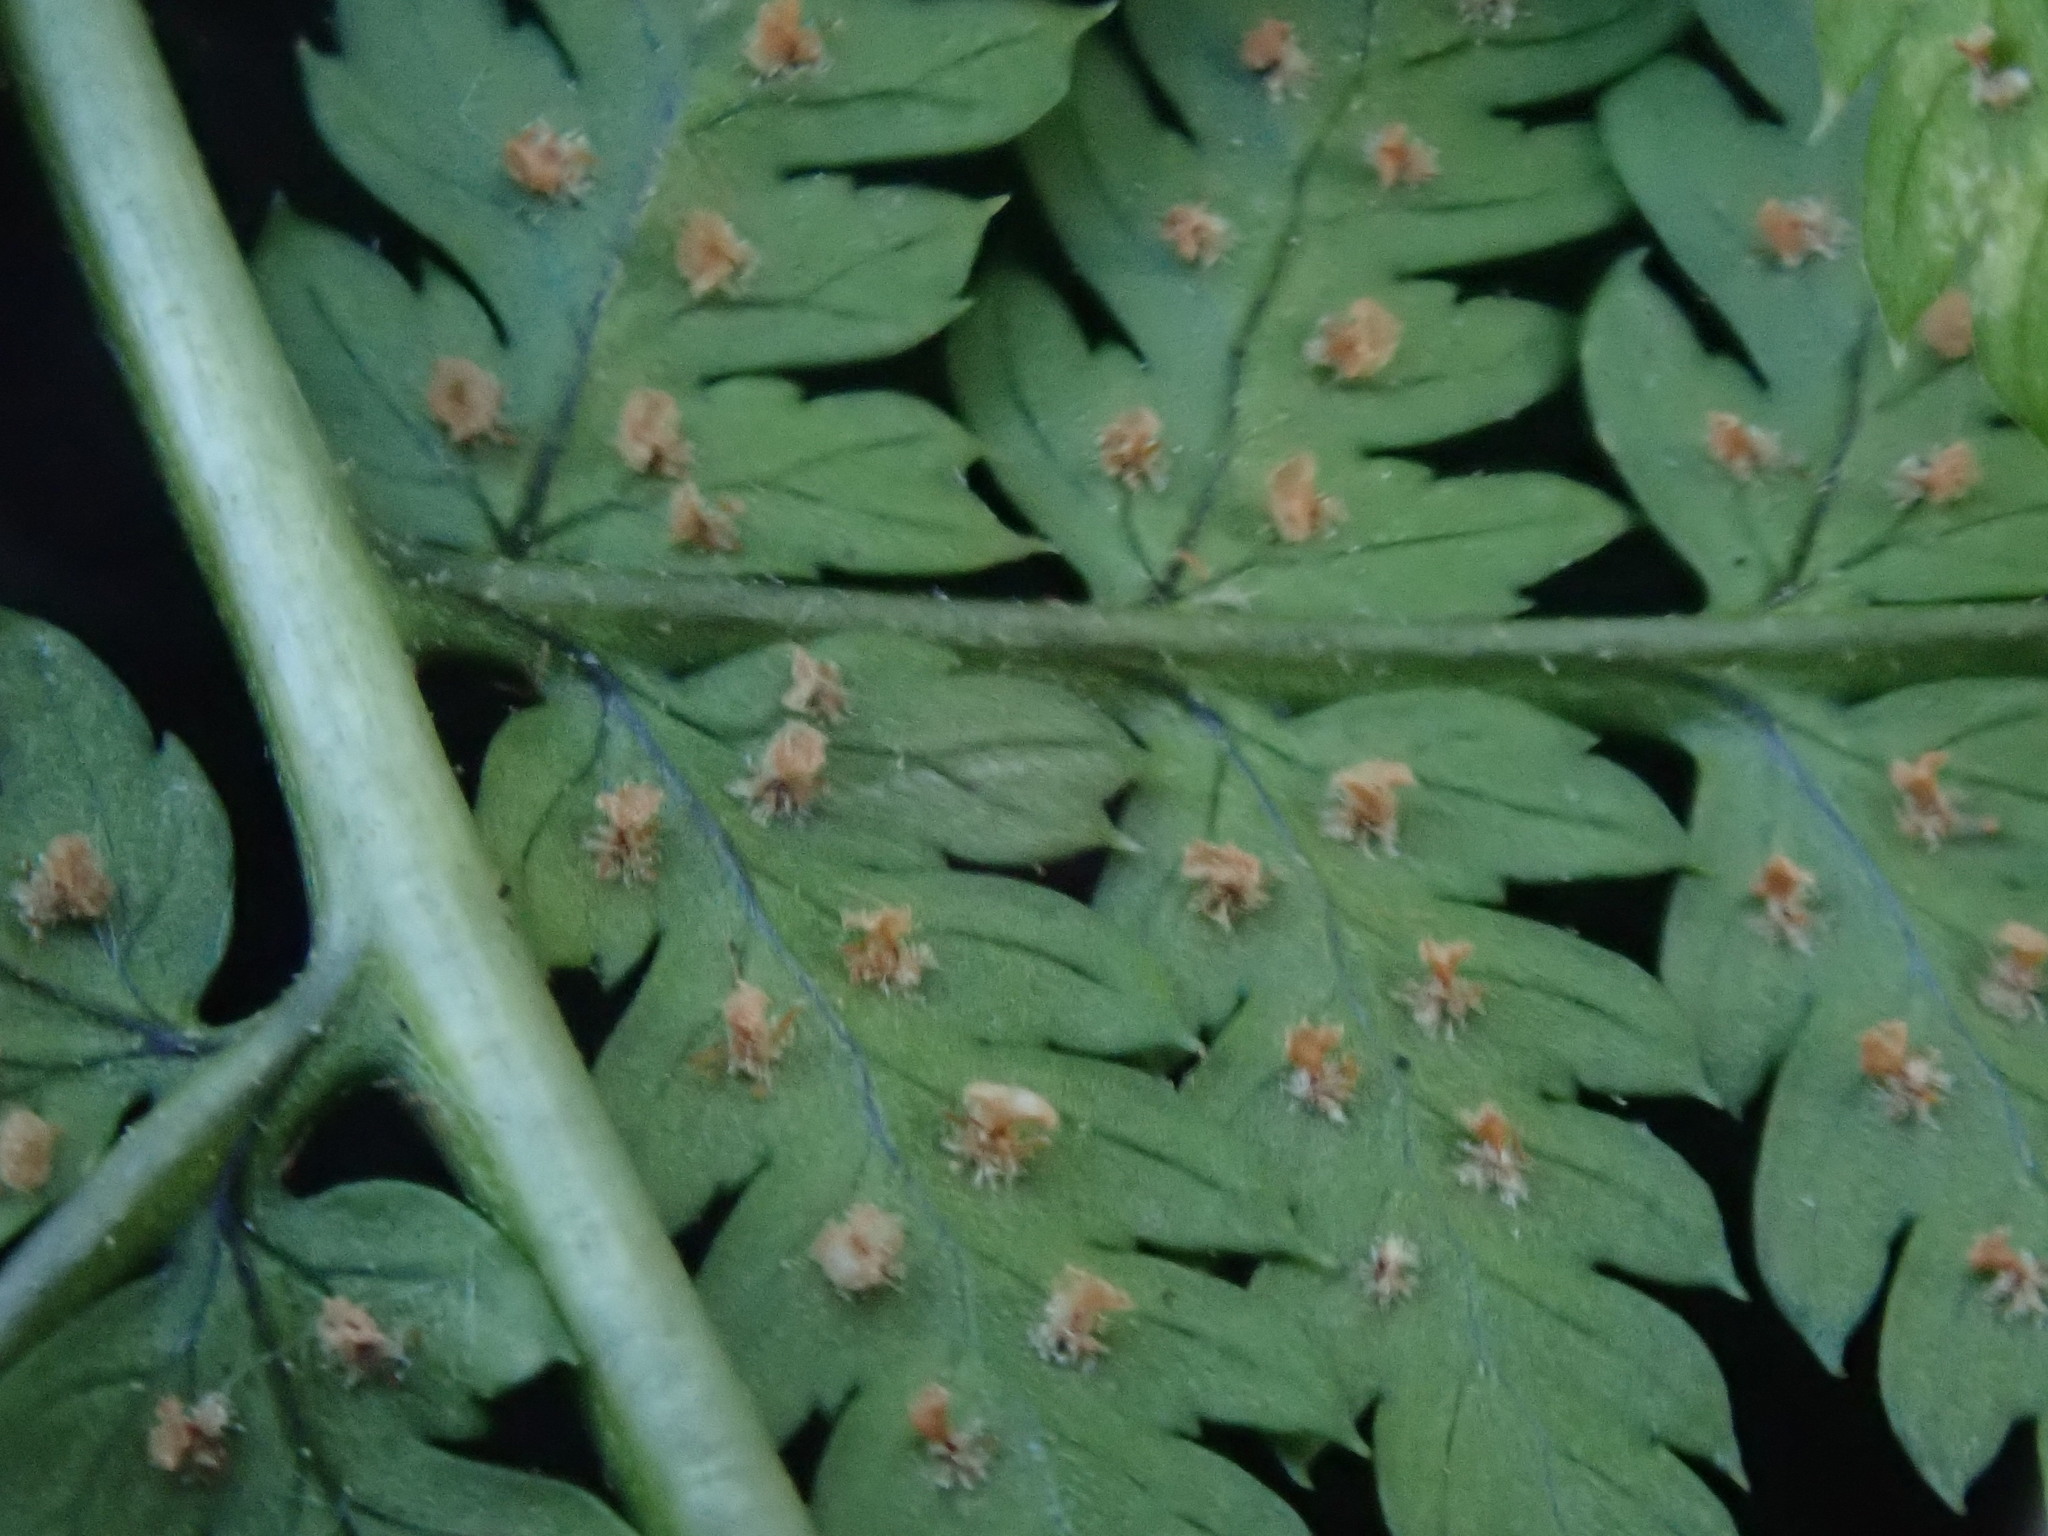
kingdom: Plantae
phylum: Tracheophyta
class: Polypodiopsida
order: Polypodiales
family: Dryopteridaceae
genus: Dryopteris
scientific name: Dryopteris intermedia
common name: Evergreen wood fern
